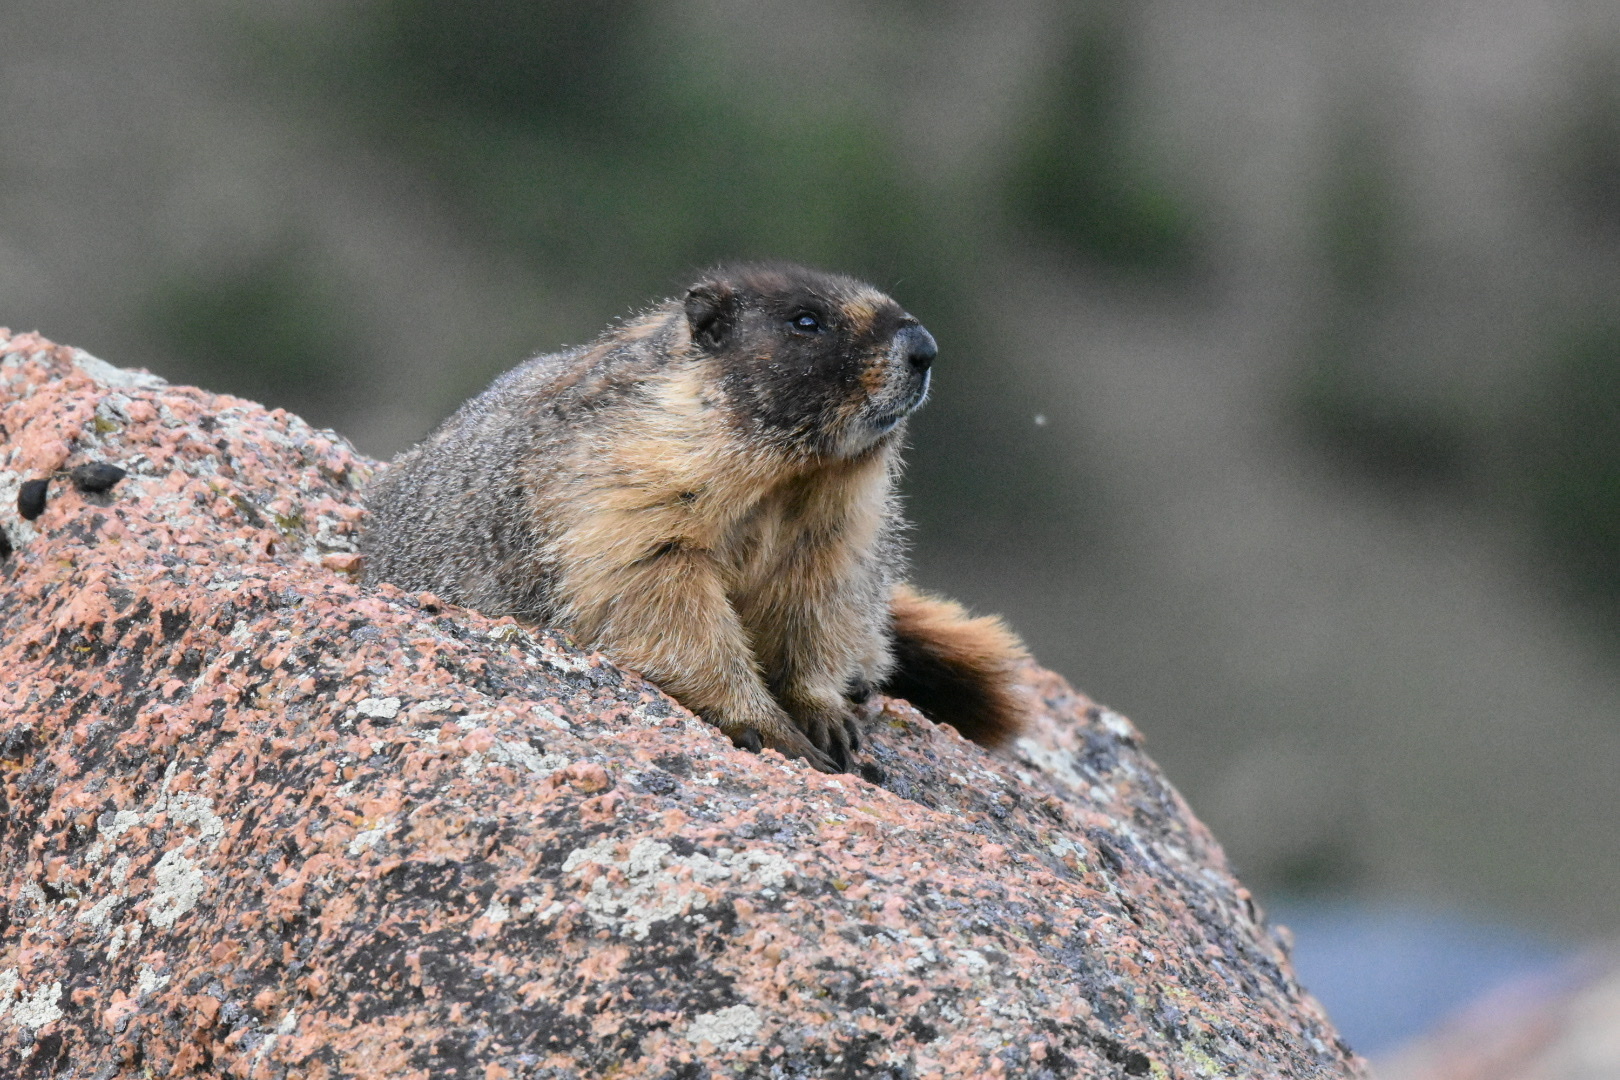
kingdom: Animalia
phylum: Chordata
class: Mammalia
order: Rodentia
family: Sciuridae
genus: Marmota
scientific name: Marmota flaviventris
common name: Yellow-bellied marmot
